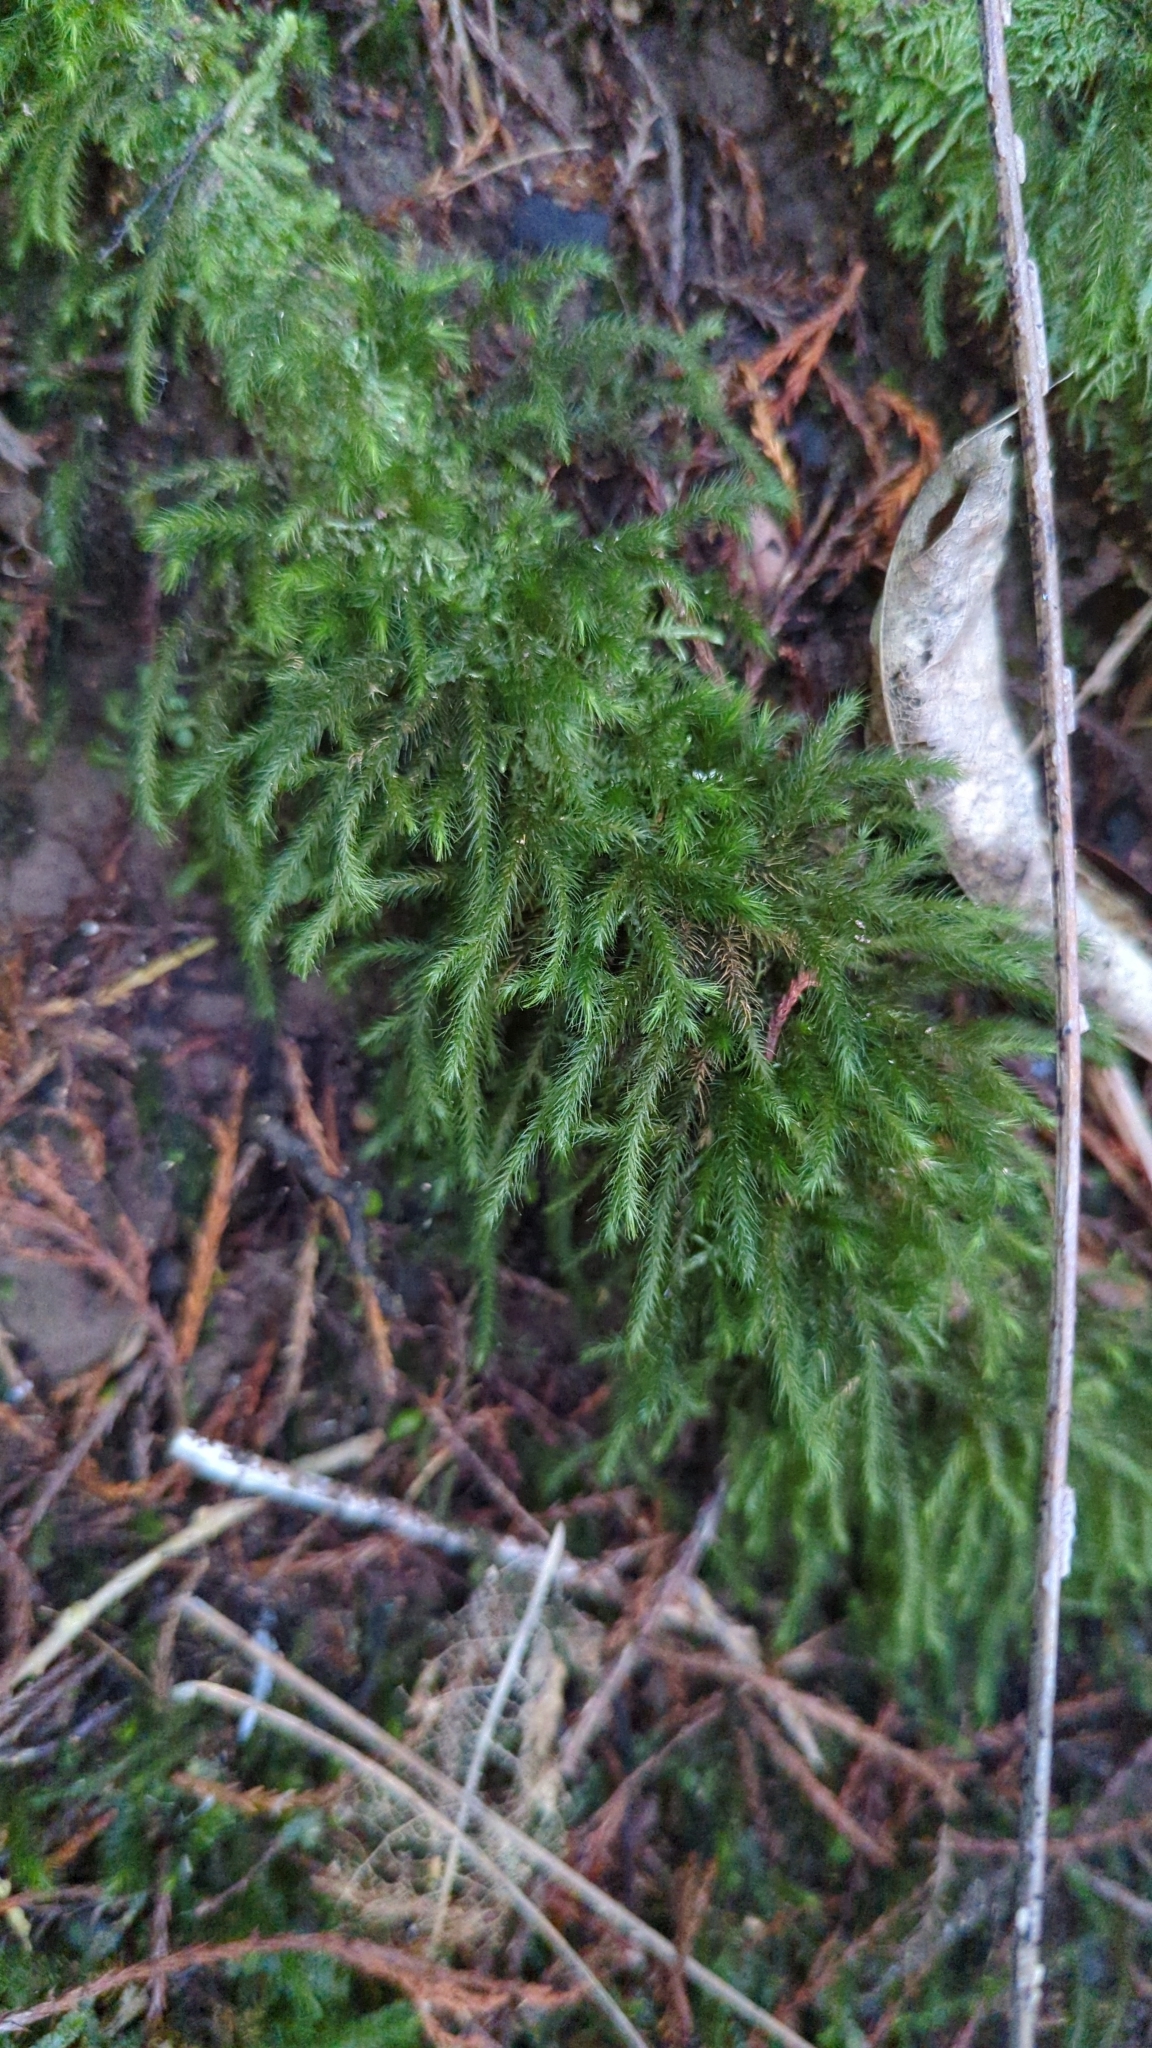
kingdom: Plantae
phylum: Bryophyta
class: Bryopsida
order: Hypnales
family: Neckeraceae
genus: Echinodiopsis
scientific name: Echinodiopsis hispida
